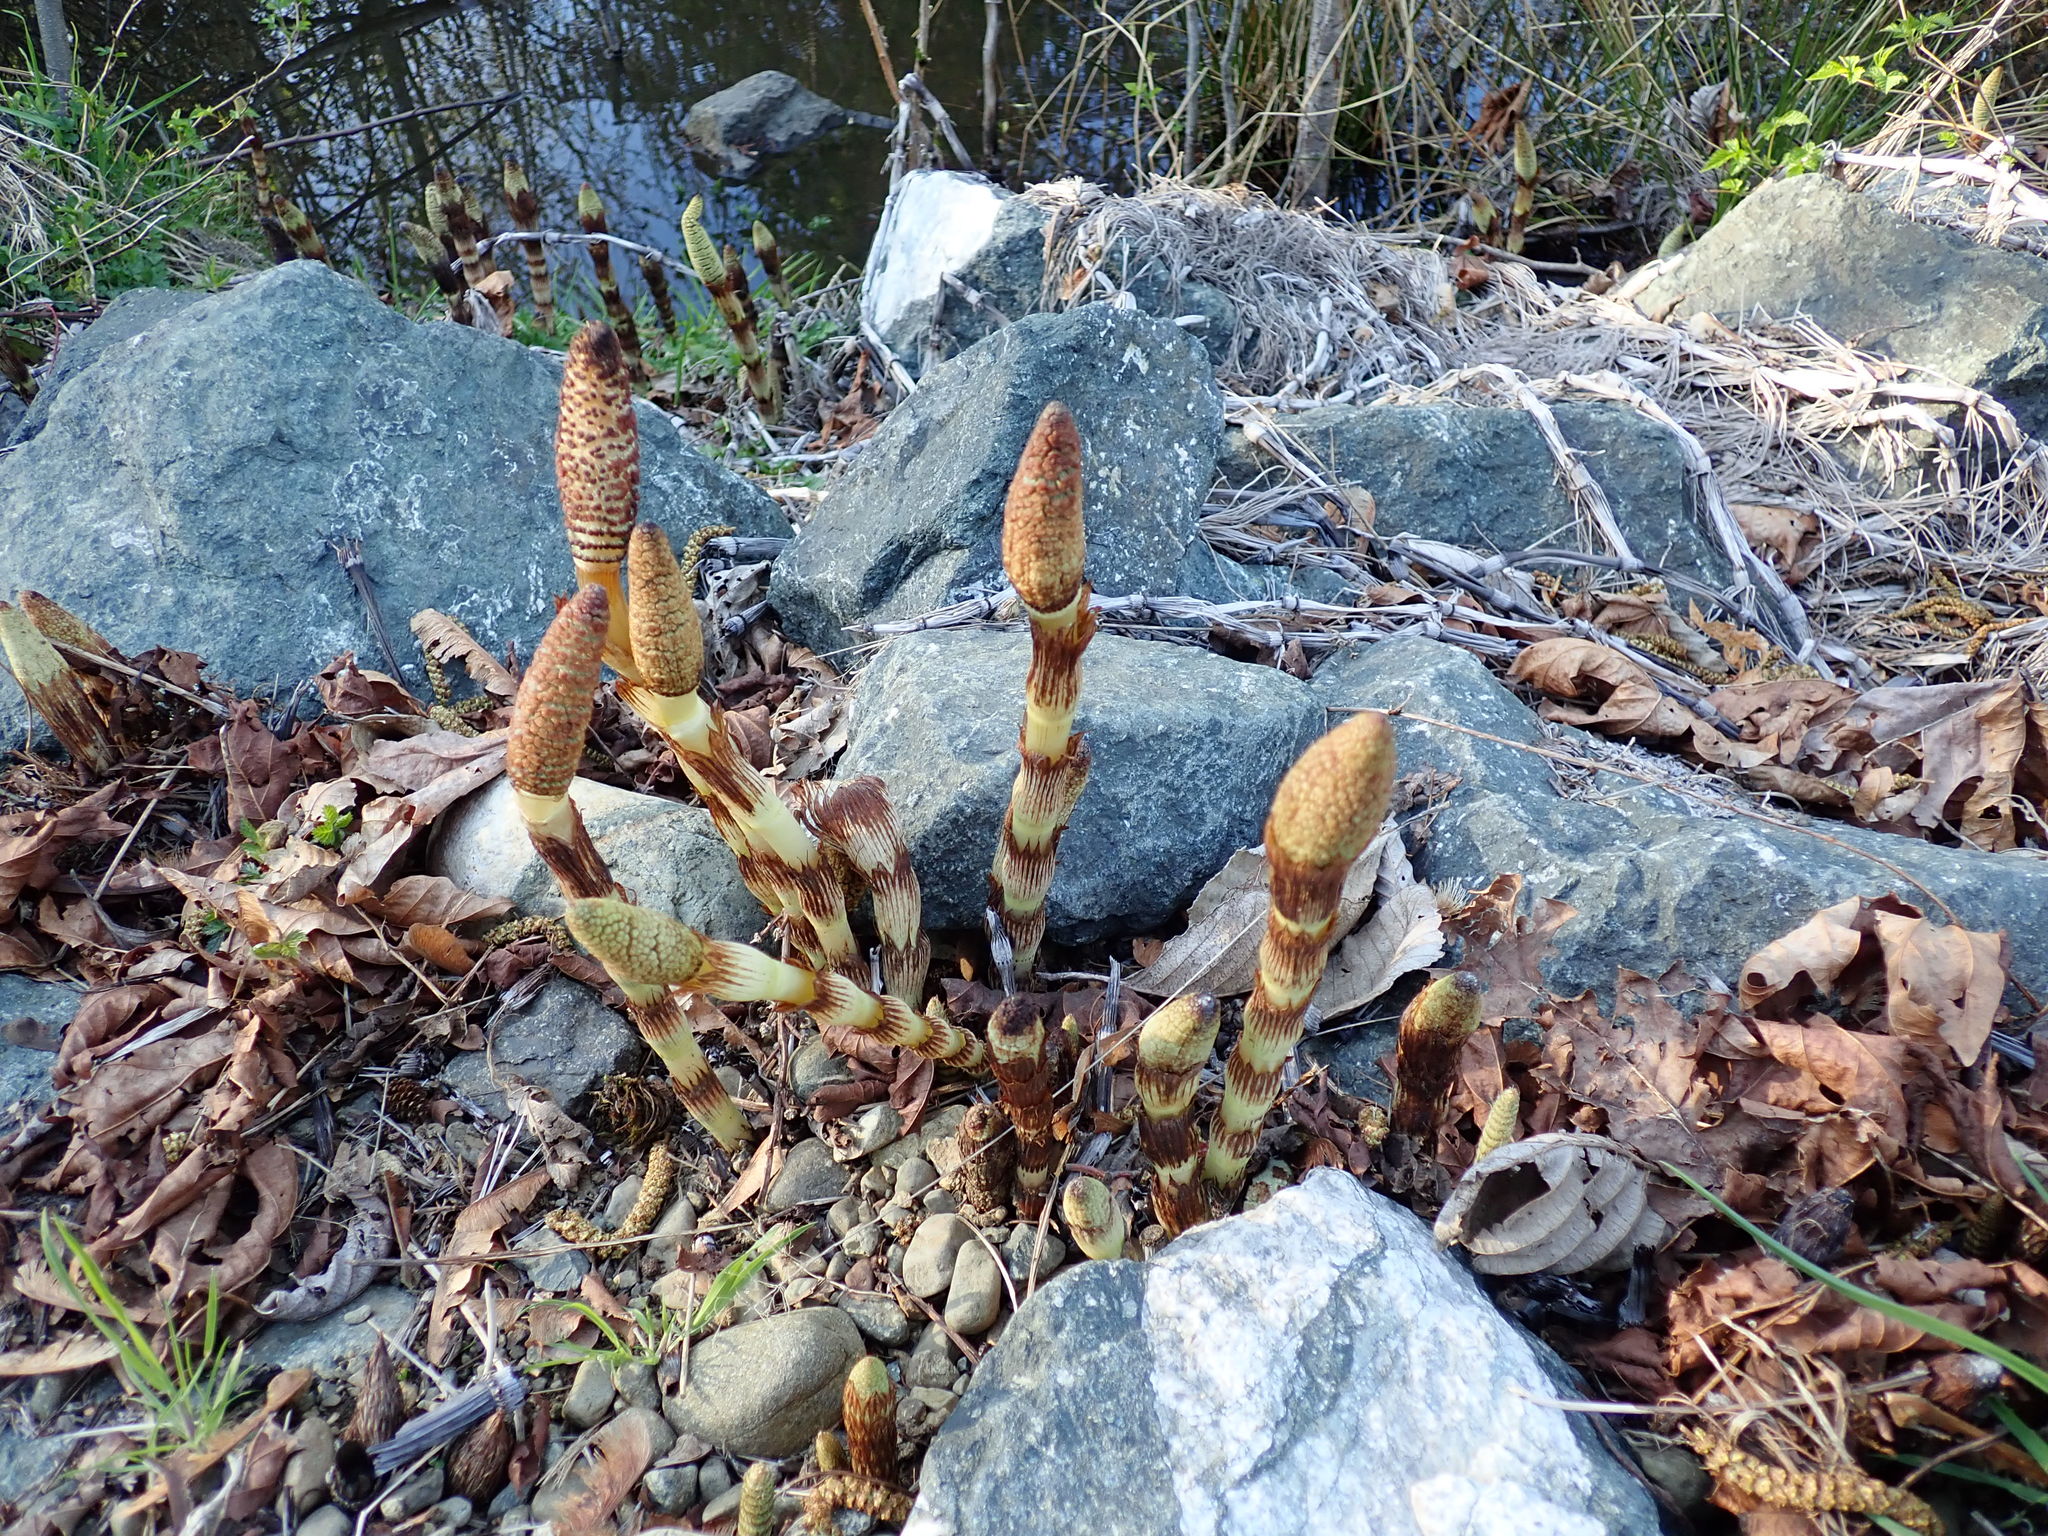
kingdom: Plantae
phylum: Tracheophyta
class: Polypodiopsida
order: Equisetales
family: Equisetaceae
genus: Equisetum
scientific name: Equisetum telmateia
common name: Great horsetail
